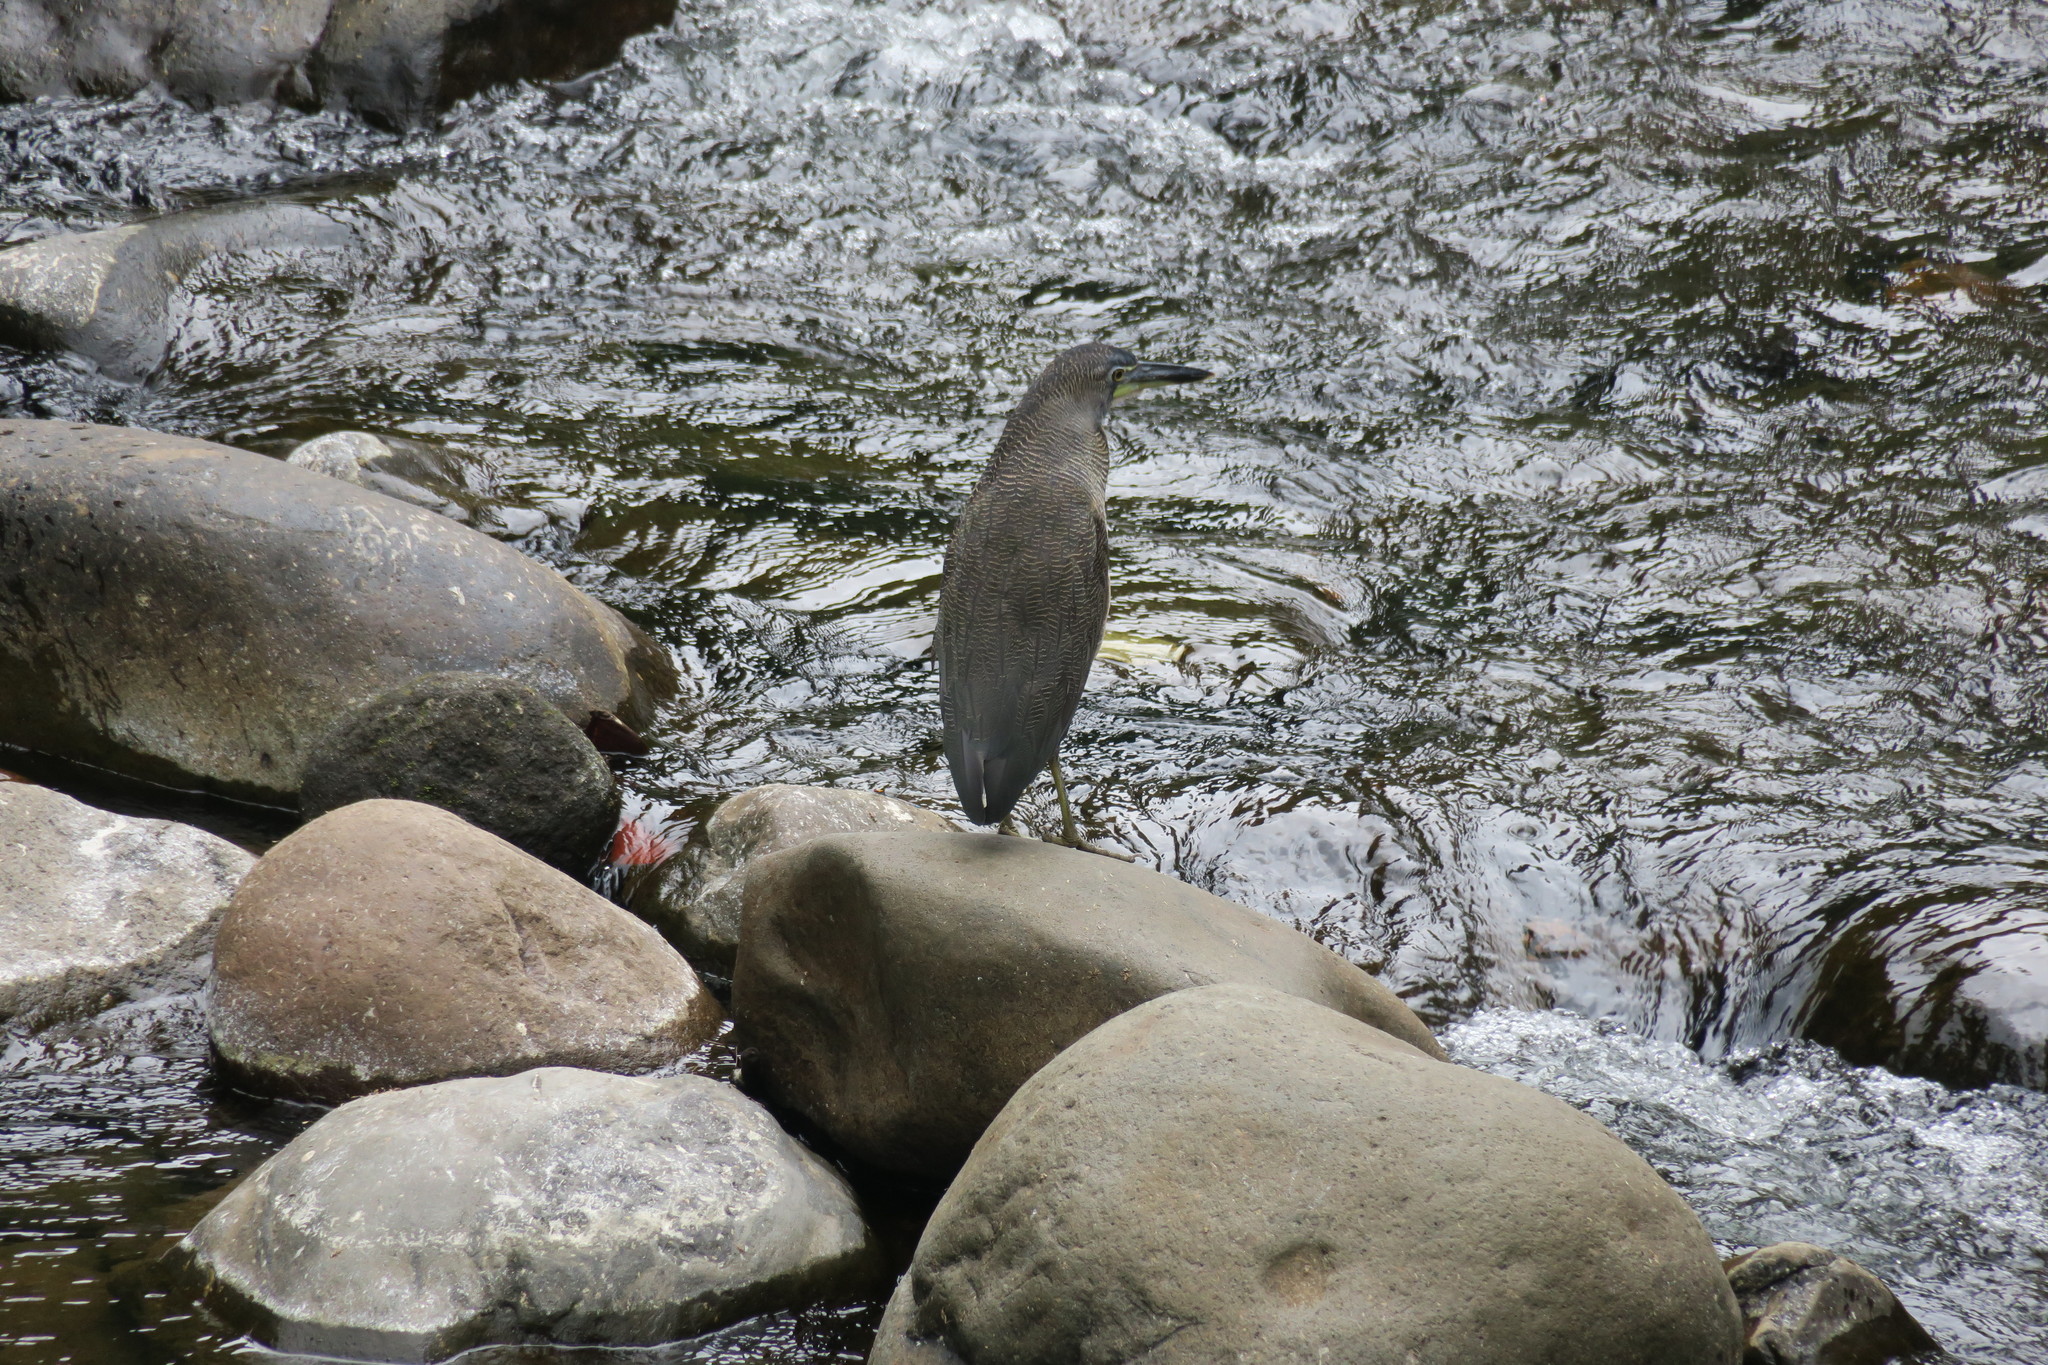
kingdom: Animalia
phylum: Chordata
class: Aves
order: Pelecaniformes
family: Ardeidae
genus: Tigrisoma
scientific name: Tigrisoma fasciatum
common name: Fasciated tiger-heron
